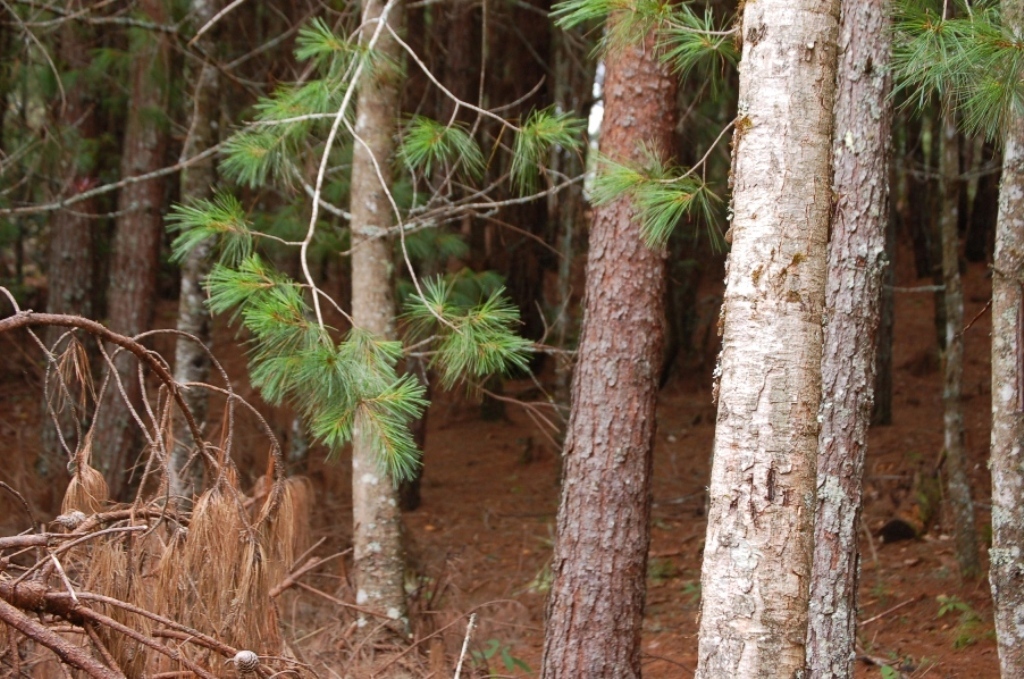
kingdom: Plantae
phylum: Tracheophyta
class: Pinopsida
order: Pinales
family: Pinaceae
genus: Pinus
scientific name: Pinus ayacahuite
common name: Mexican white pine
